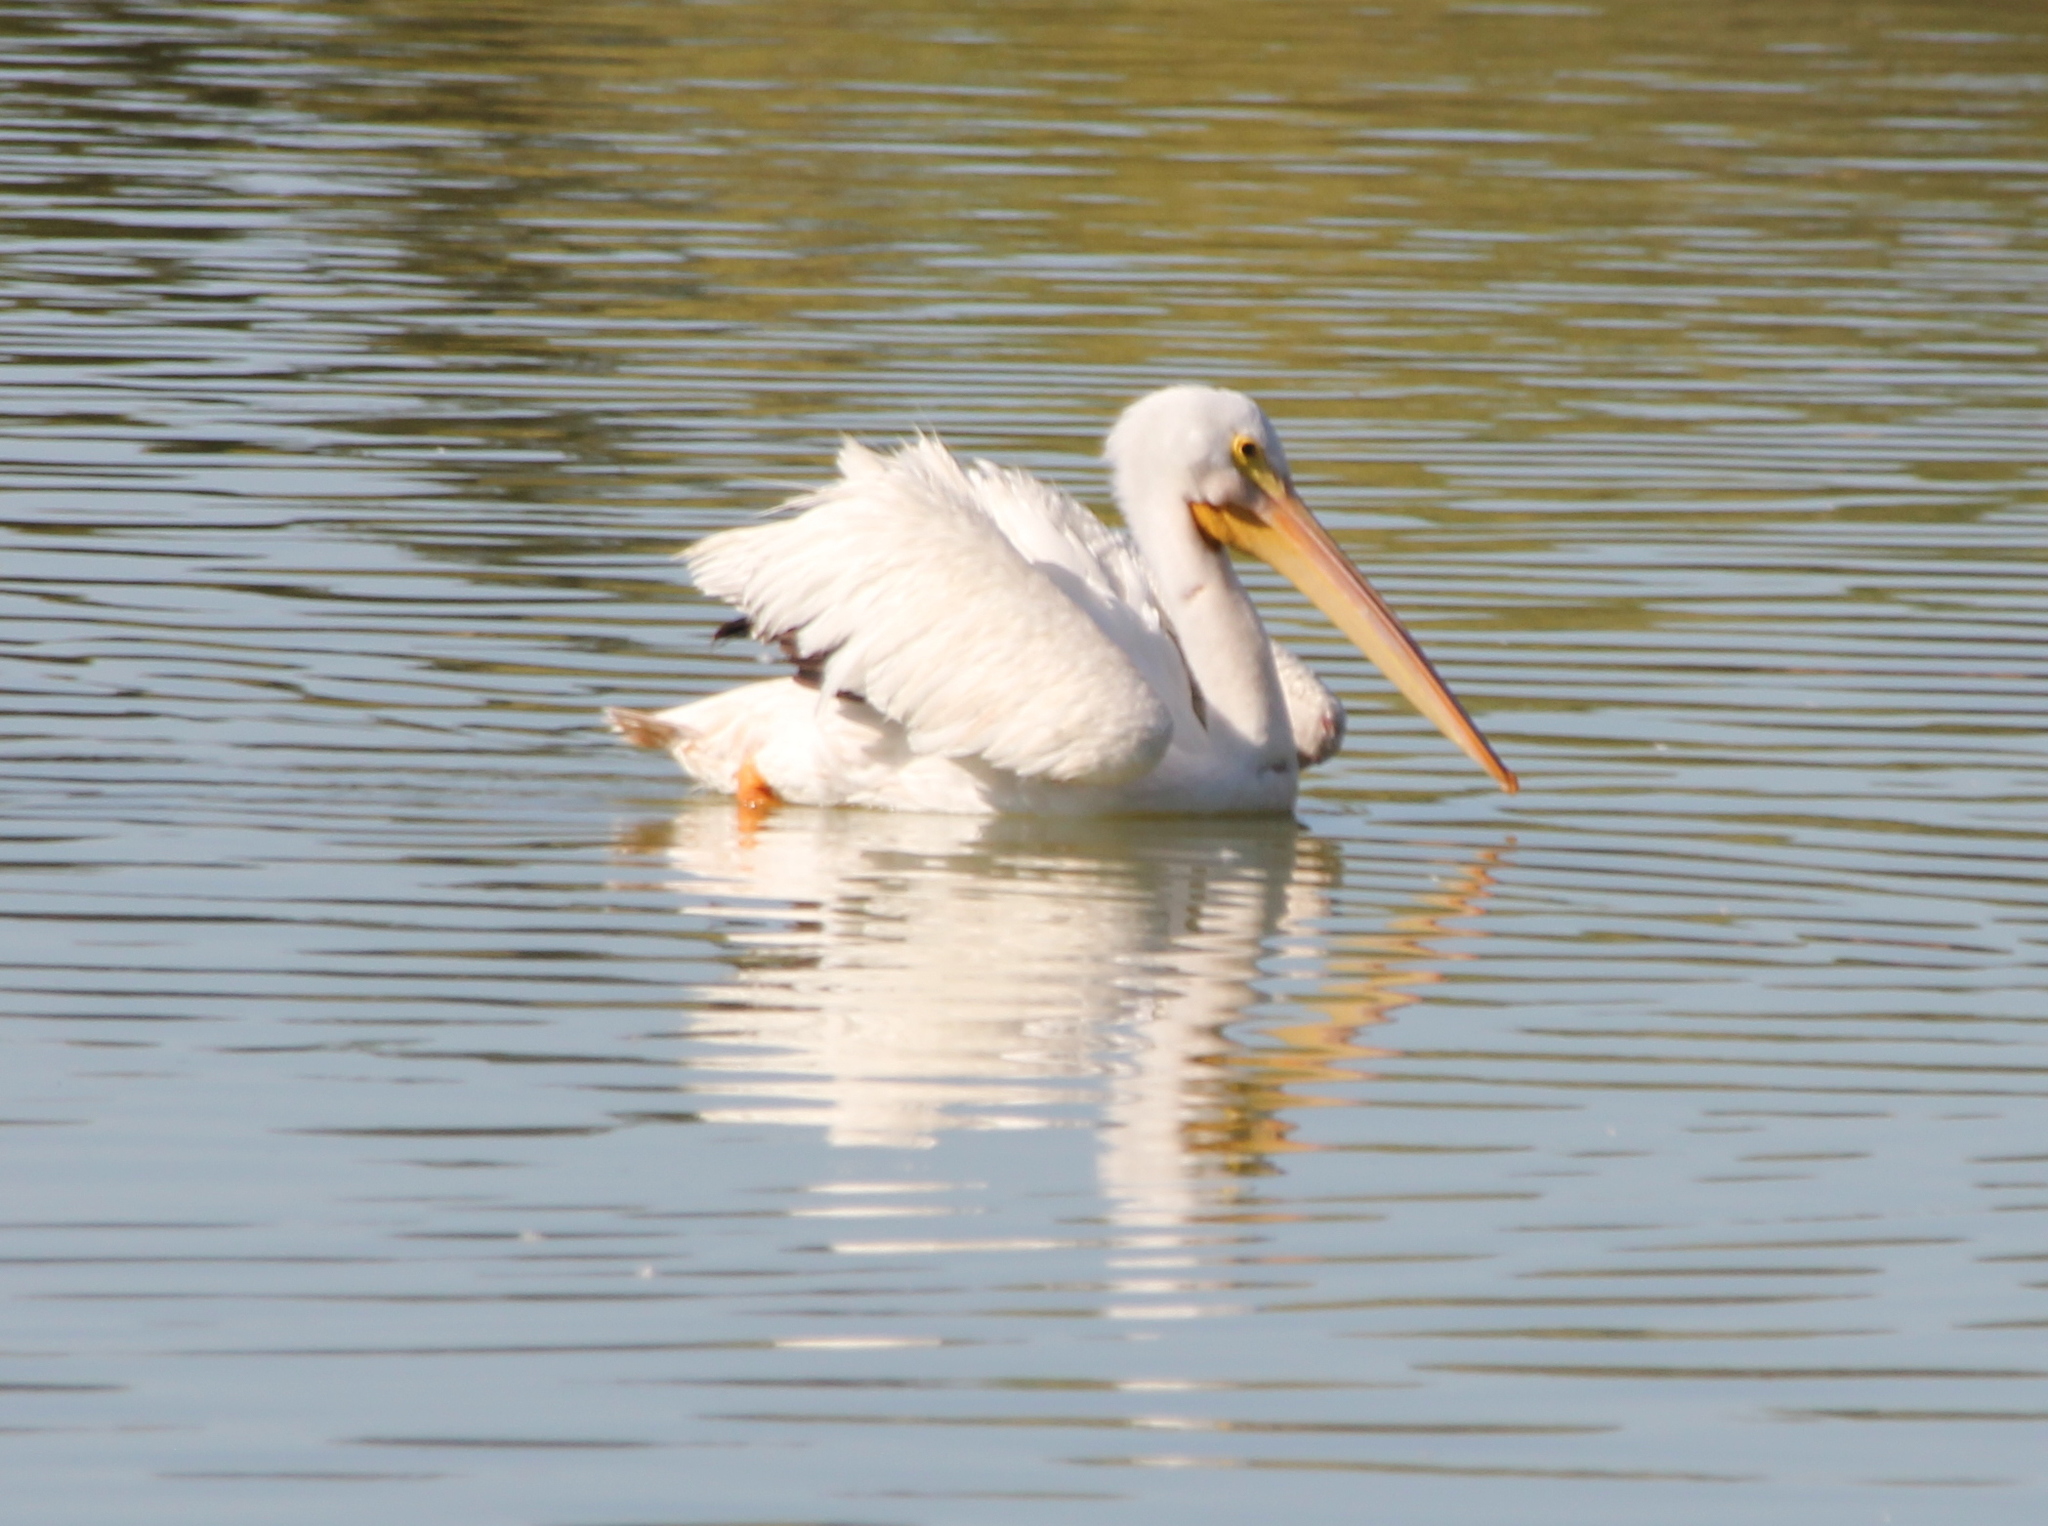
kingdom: Animalia
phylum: Chordata
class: Aves
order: Pelecaniformes
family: Pelecanidae
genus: Pelecanus
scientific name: Pelecanus erythrorhynchos
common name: American white pelican
